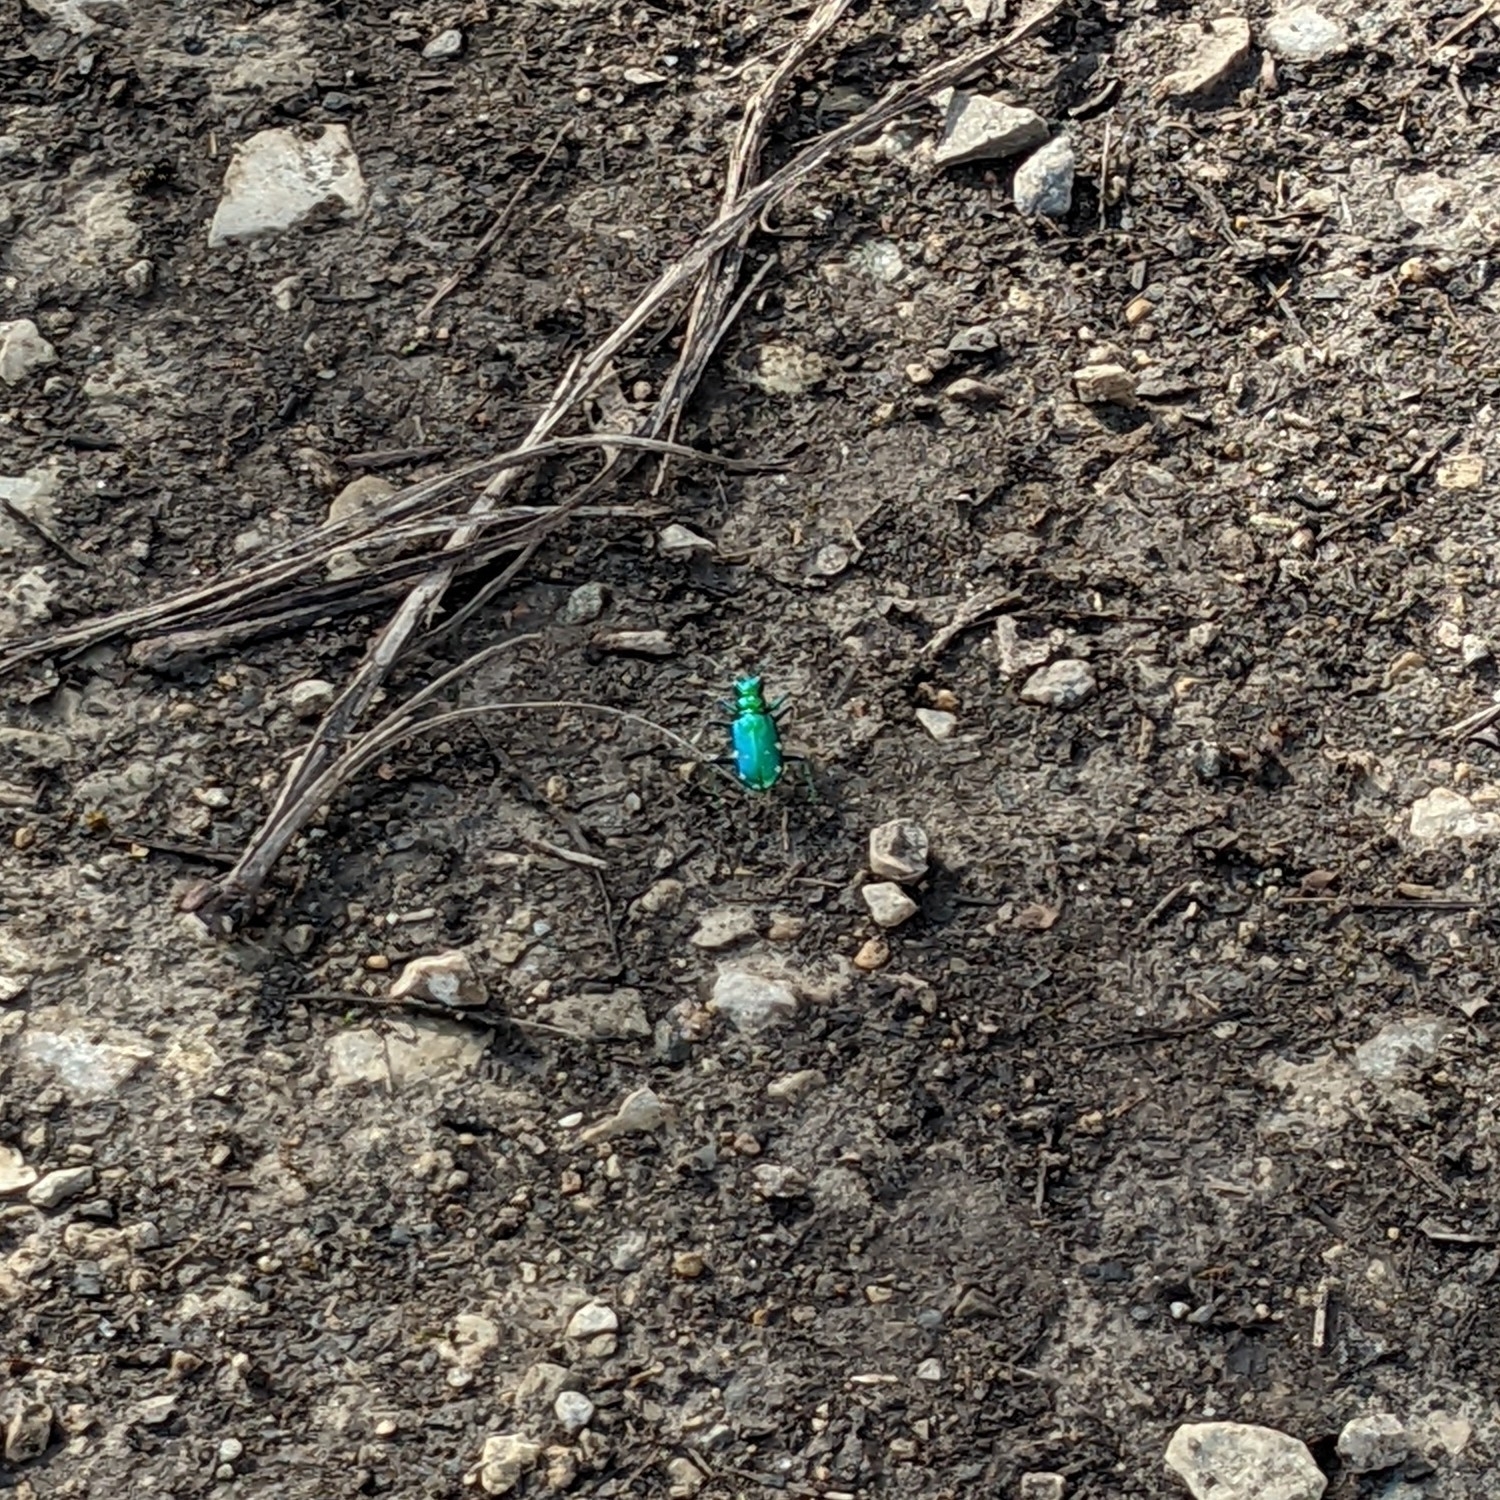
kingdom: Animalia
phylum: Arthropoda
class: Insecta
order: Coleoptera
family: Carabidae
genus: Cicindela
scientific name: Cicindela sexguttata
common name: Six-spotted tiger beetle
